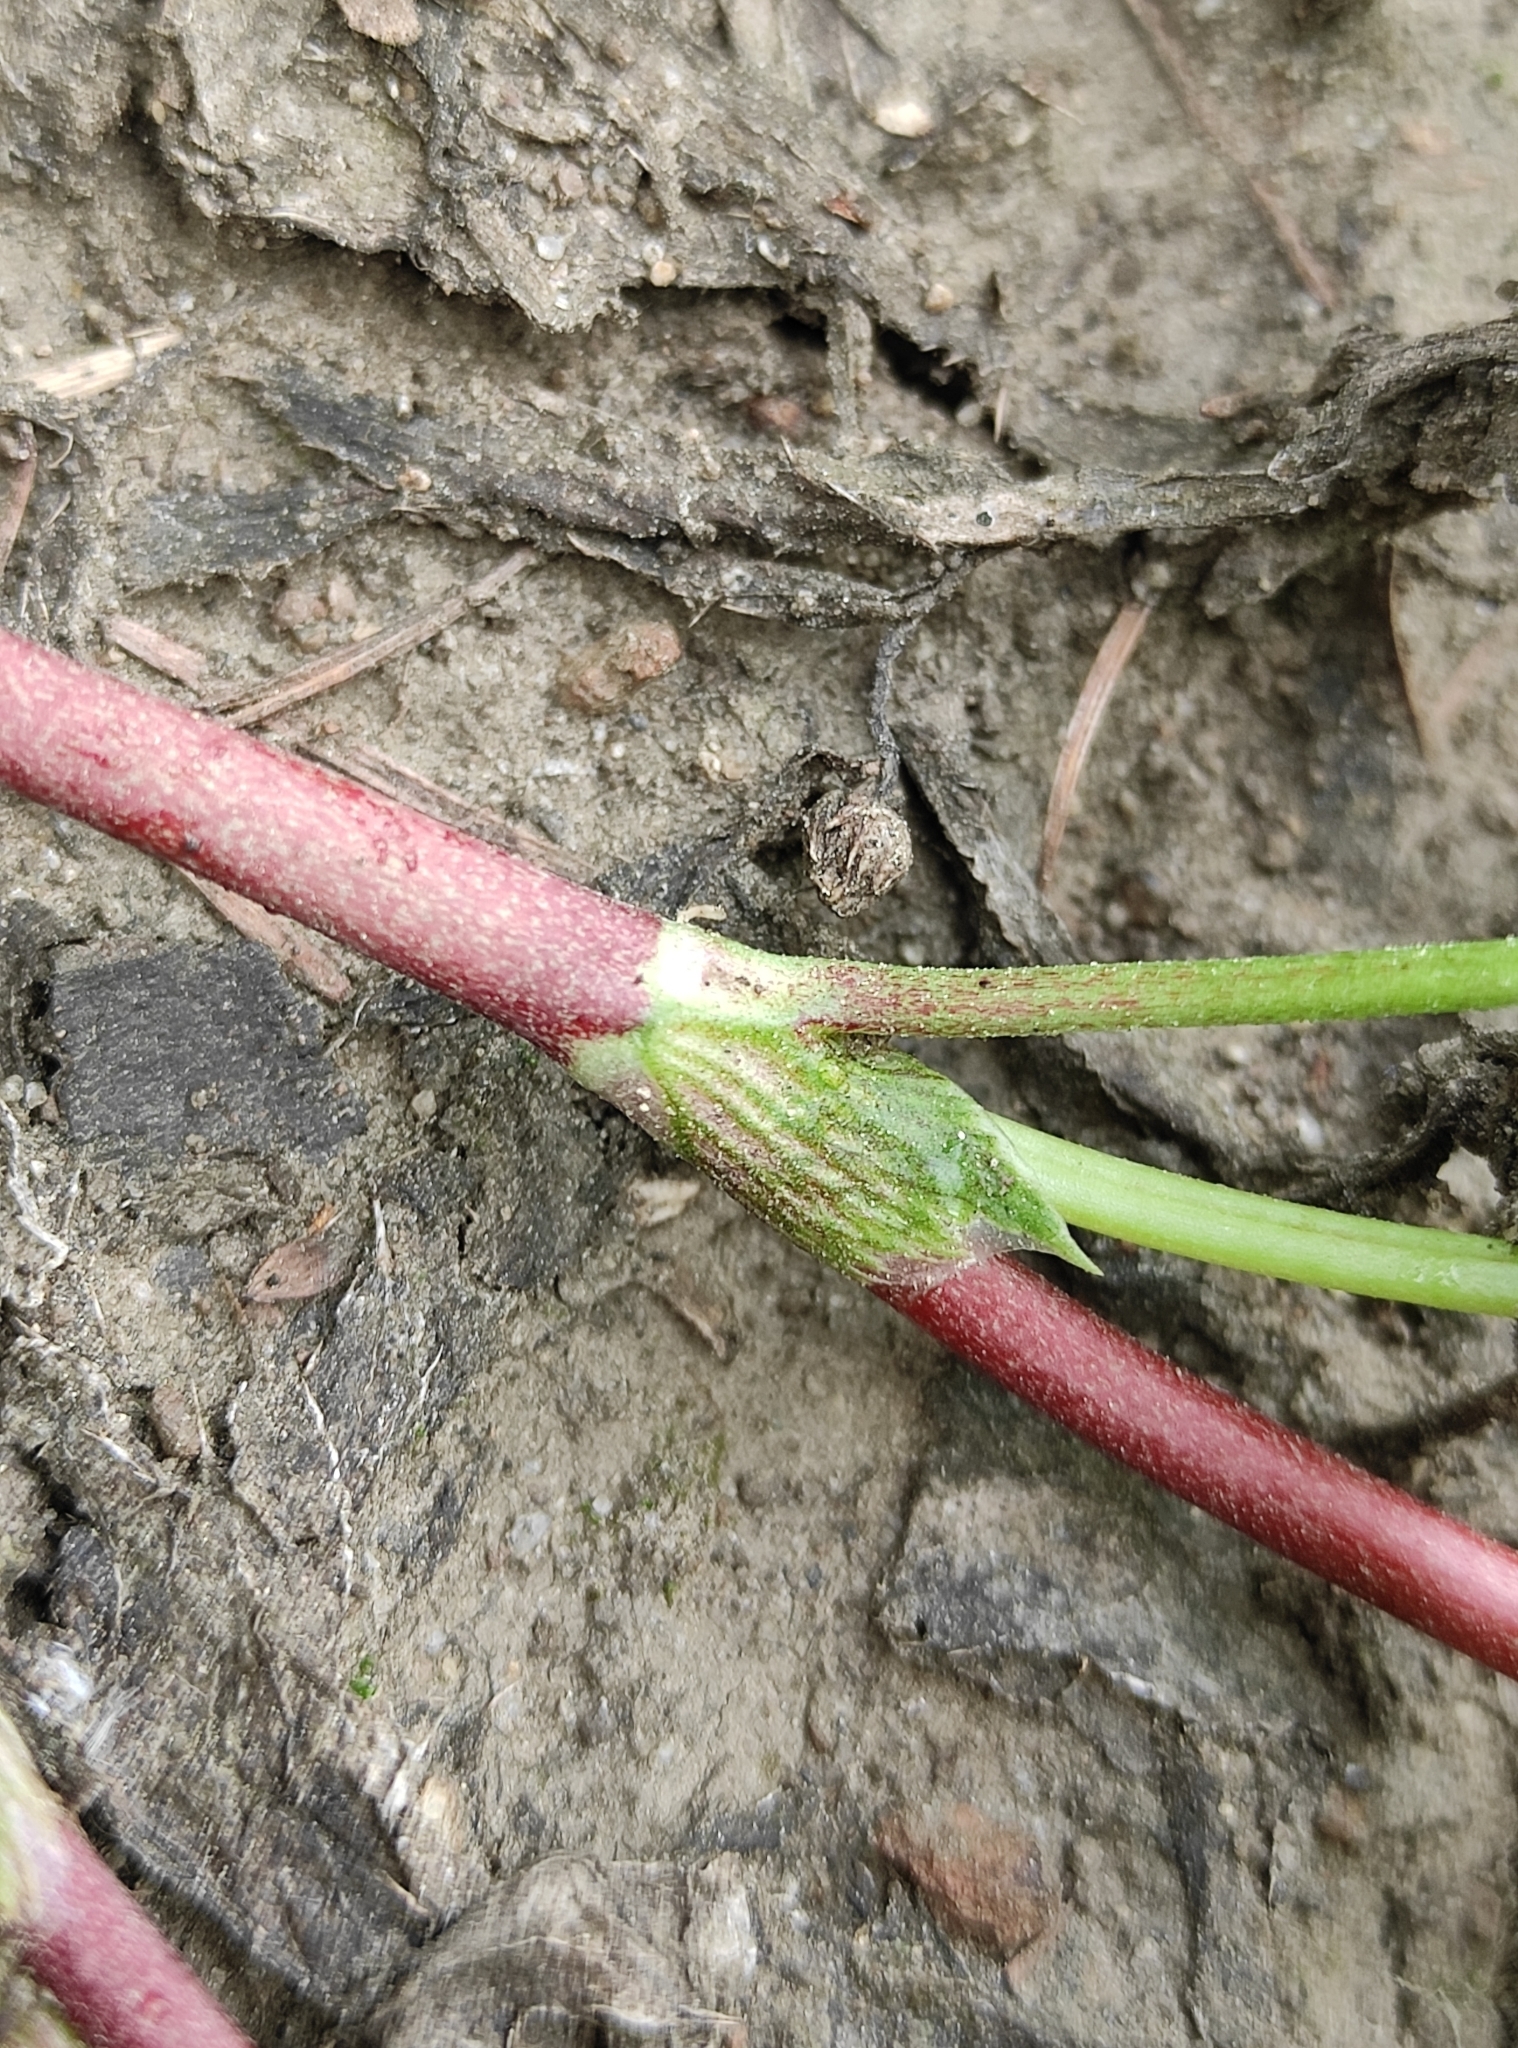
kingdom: Plantae
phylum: Tracheophyta
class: Magnoliopsida
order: Fabales
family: Fabaceae
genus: Trifolium
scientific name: Trifolium repens
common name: White clover
